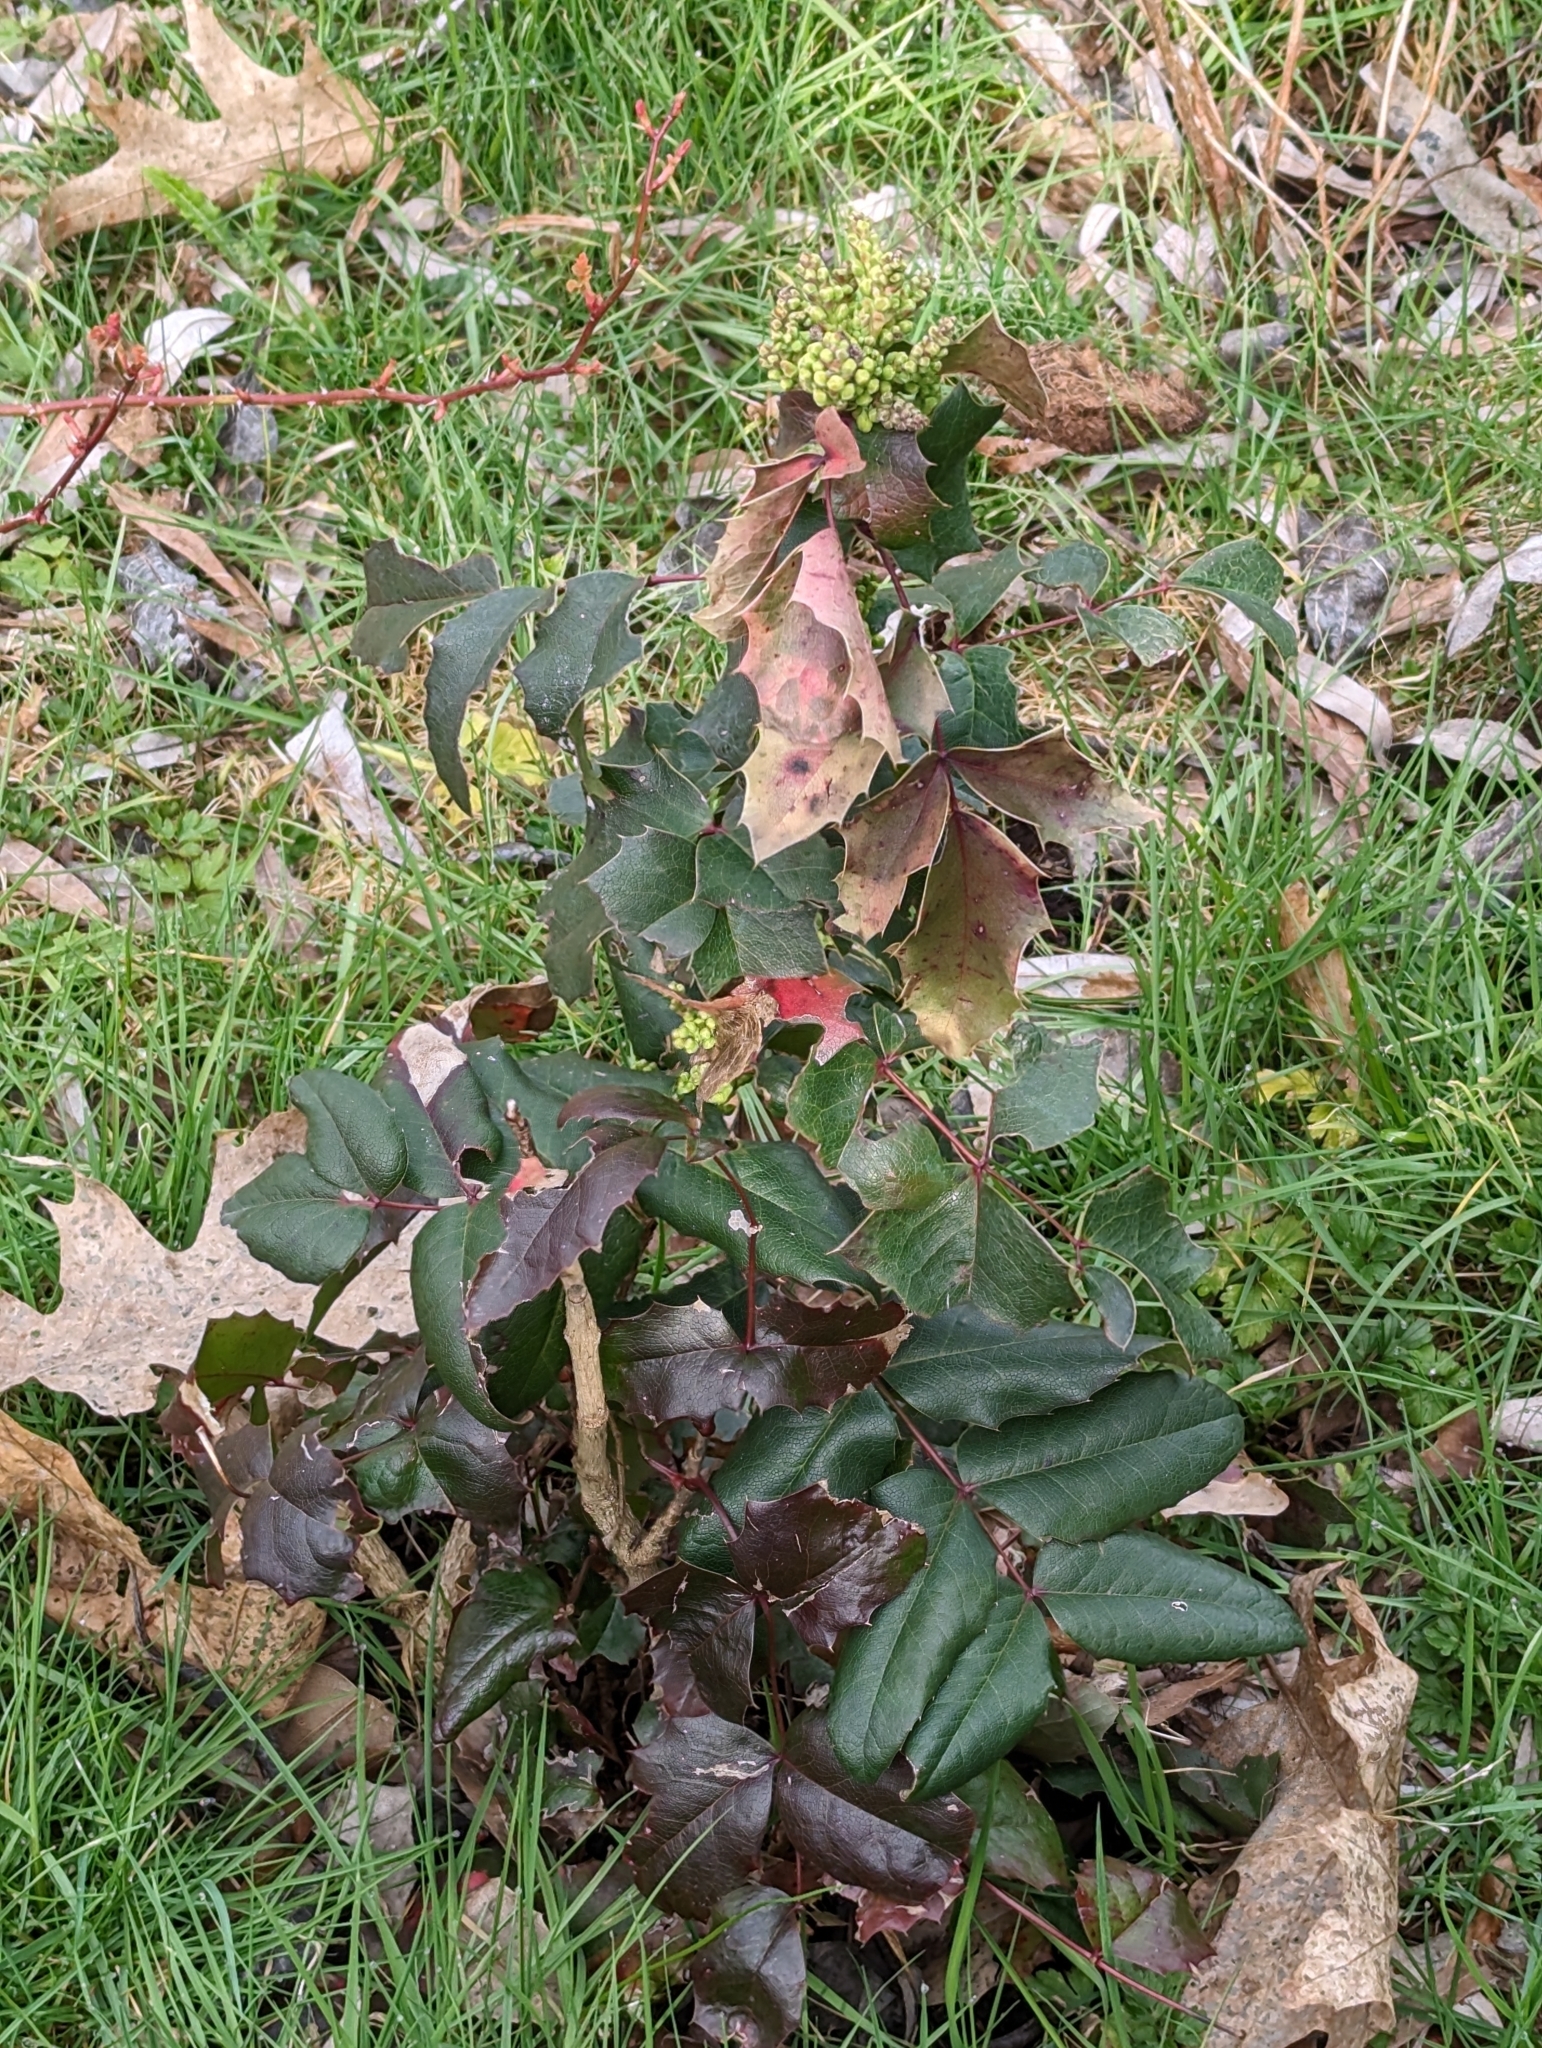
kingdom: Plantae
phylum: Tracheophyta
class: Magnoliopsida
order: Ranunculales
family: Berberidaceae
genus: Mahonia
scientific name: Mahonia aquifolium
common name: Oregon-grape
